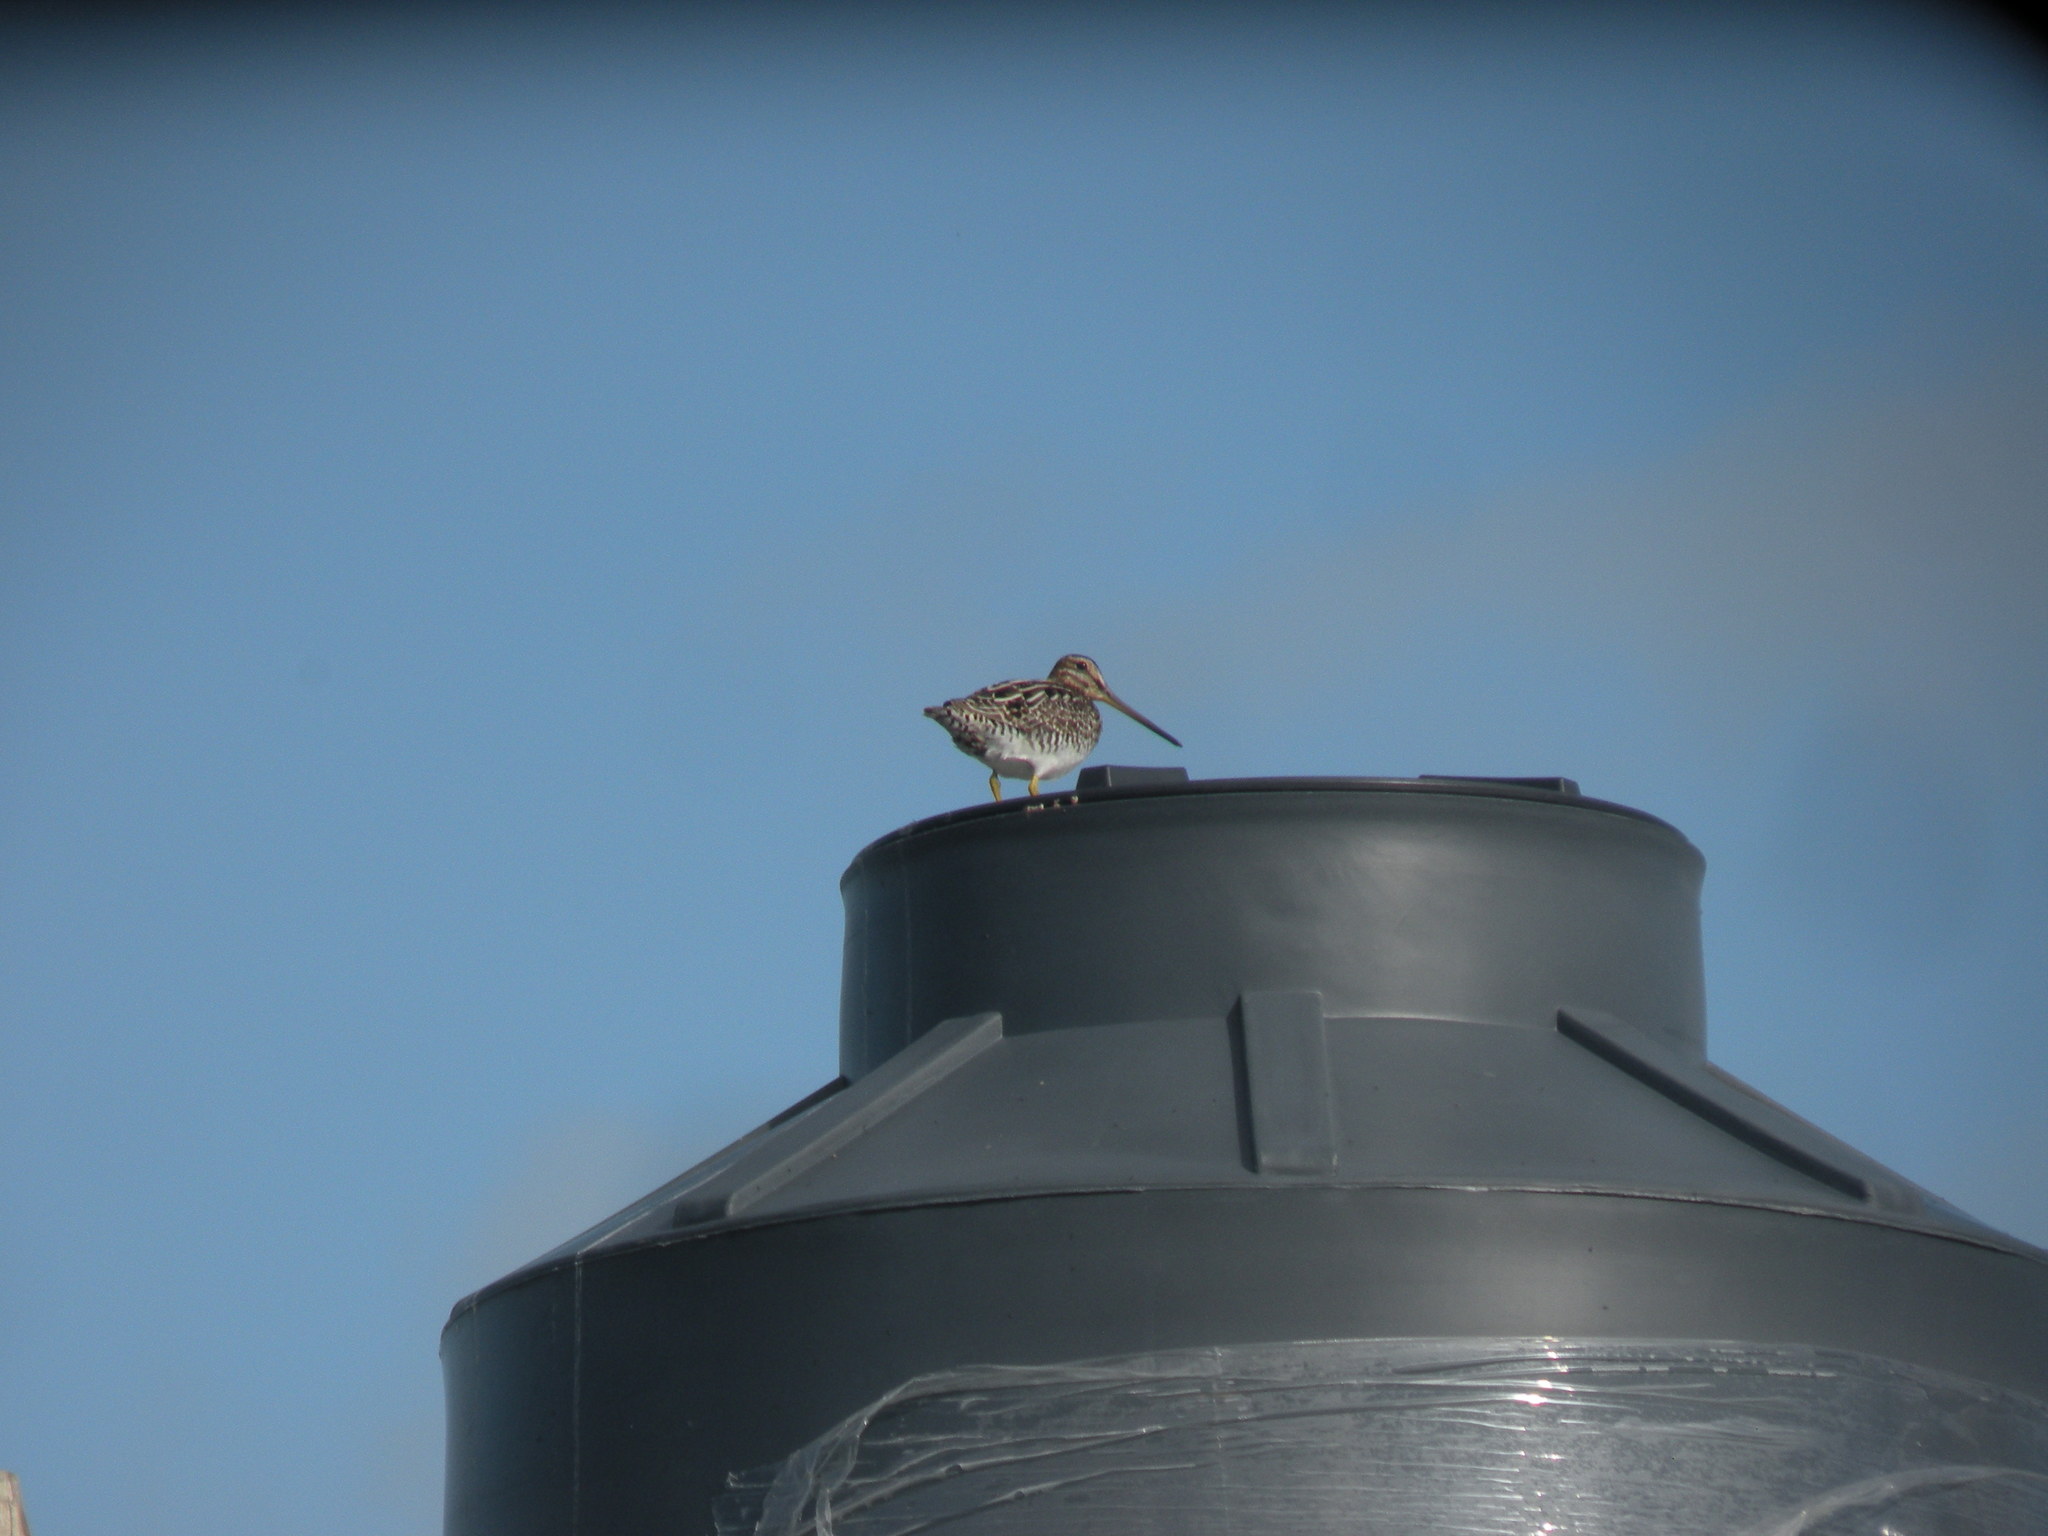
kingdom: Animalia
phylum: Chordata
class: Aves
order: Charadriiformes
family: Scolopacidae
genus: Gallinago
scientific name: Gallinago paraguaiae
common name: South american snipe
